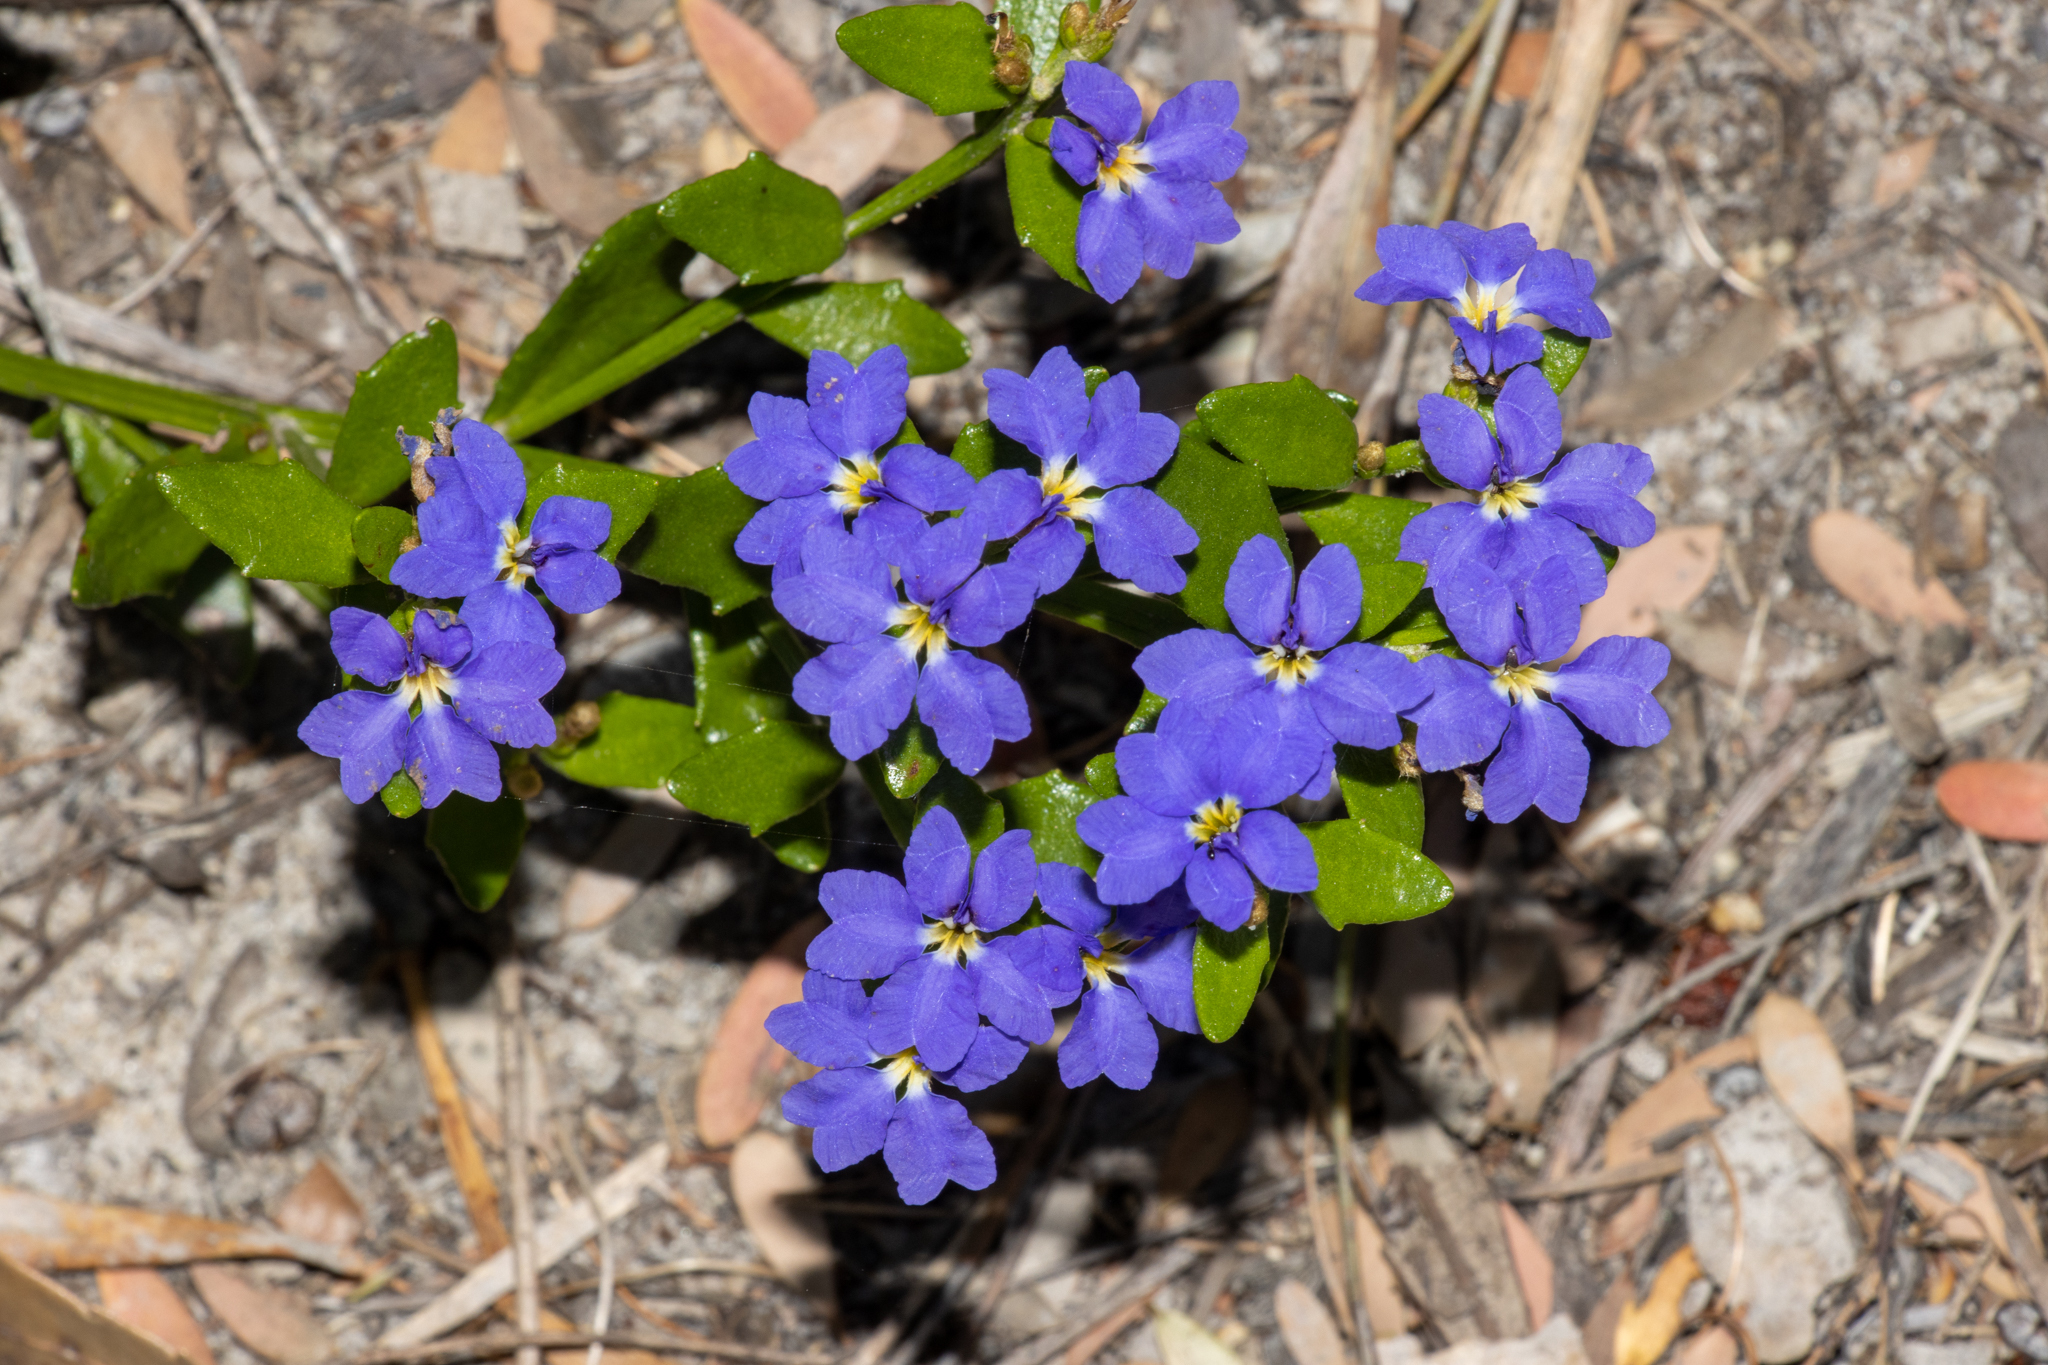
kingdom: Plantae
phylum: Tracheophyta
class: Magnoliopsida
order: Asterales
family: Goodeniaceae
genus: Dampiera
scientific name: Dampiera stricta
